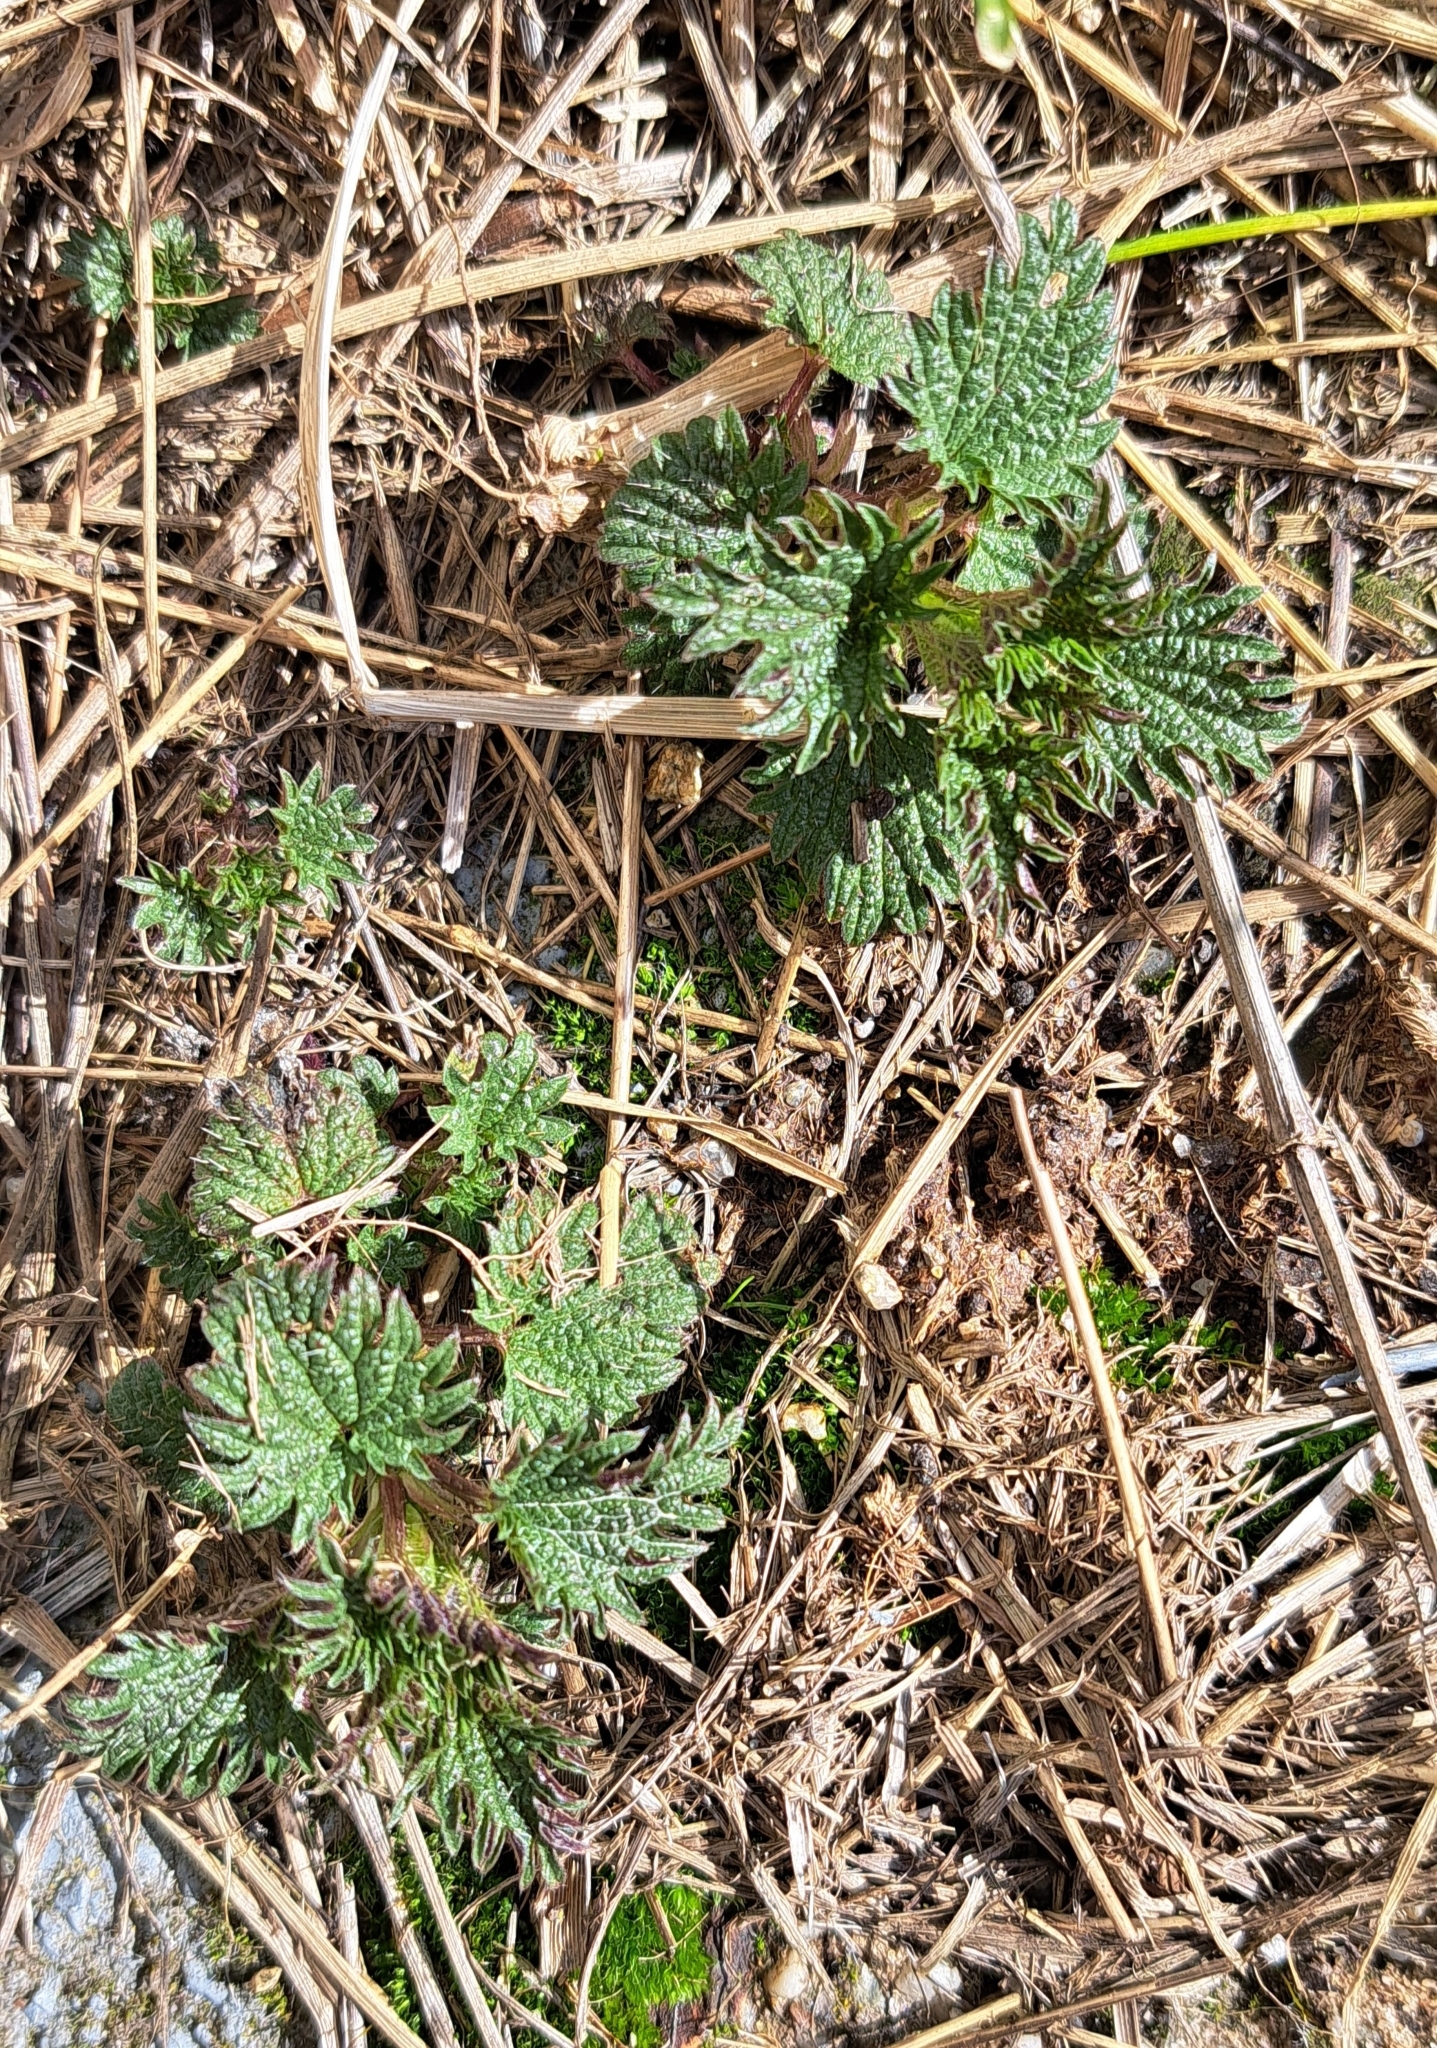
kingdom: Plantae
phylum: Tracheophyta
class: Magnoliopsida
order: Rosales
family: Urticaceae
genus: Urtica
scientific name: Urtica dioica
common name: Common nettle
